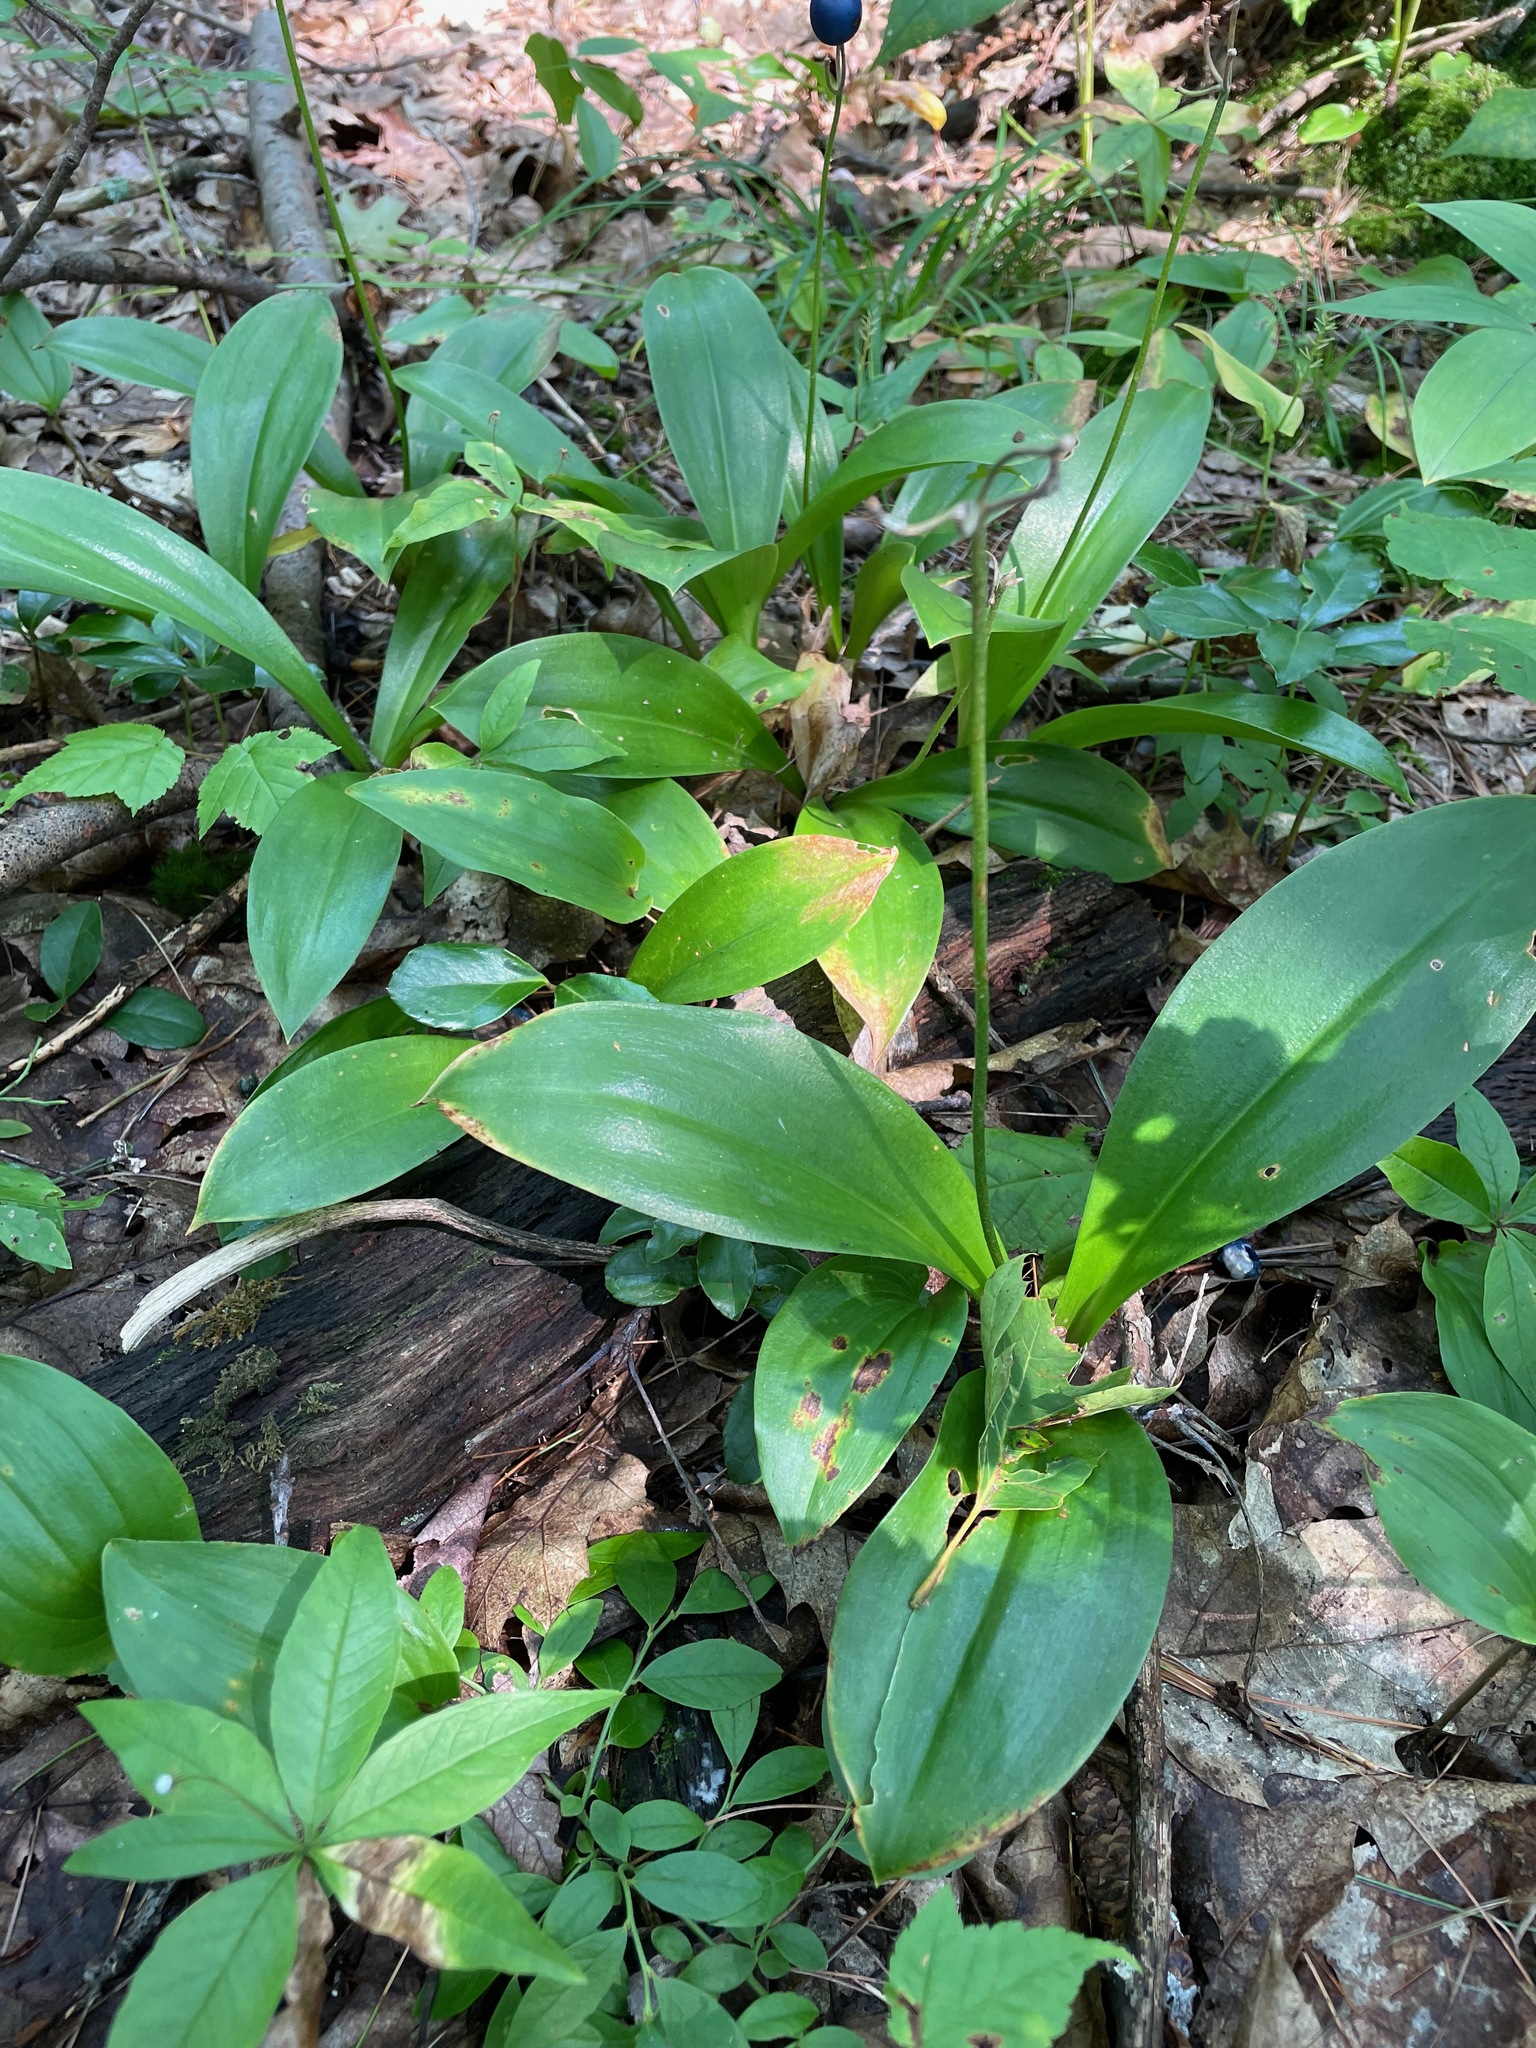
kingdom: Plantae
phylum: Tracheophyta
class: Liliopsida
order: Liliales
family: Liliaceae
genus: Clintonia
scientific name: Clintonia borealis
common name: Yellow clintonia
